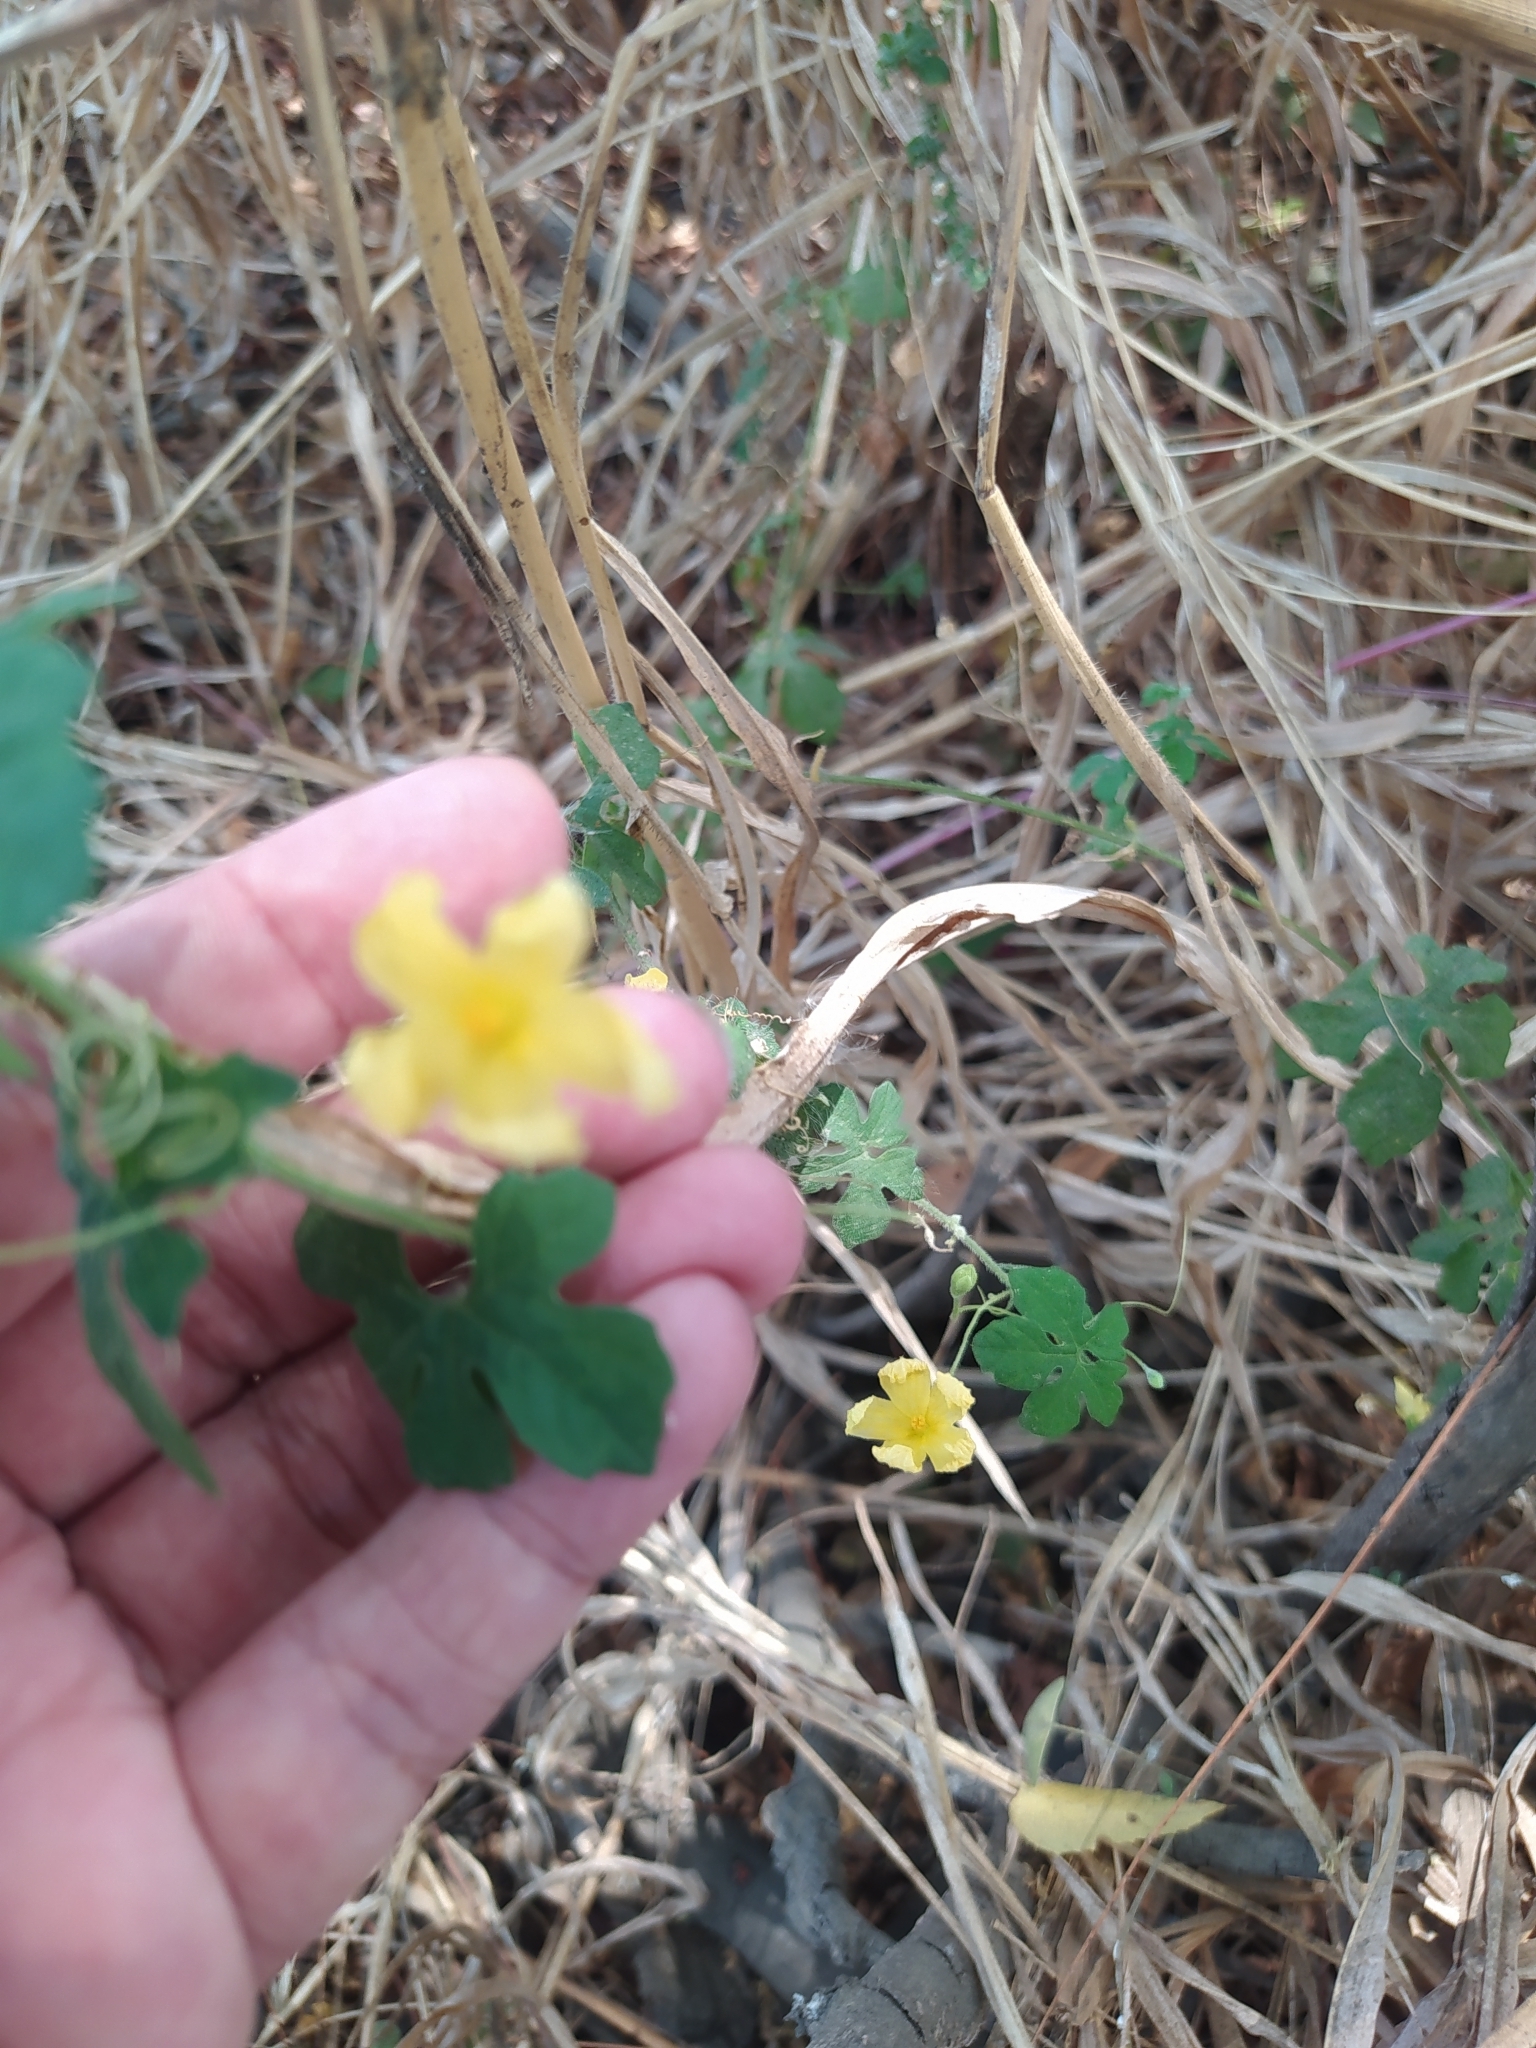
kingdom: Plantae
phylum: Tracheophyta
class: Magnoliopsida
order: Cucurbitales
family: Cucurbitaceae
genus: Momordica
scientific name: Momordica charantia
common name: Balsampear
